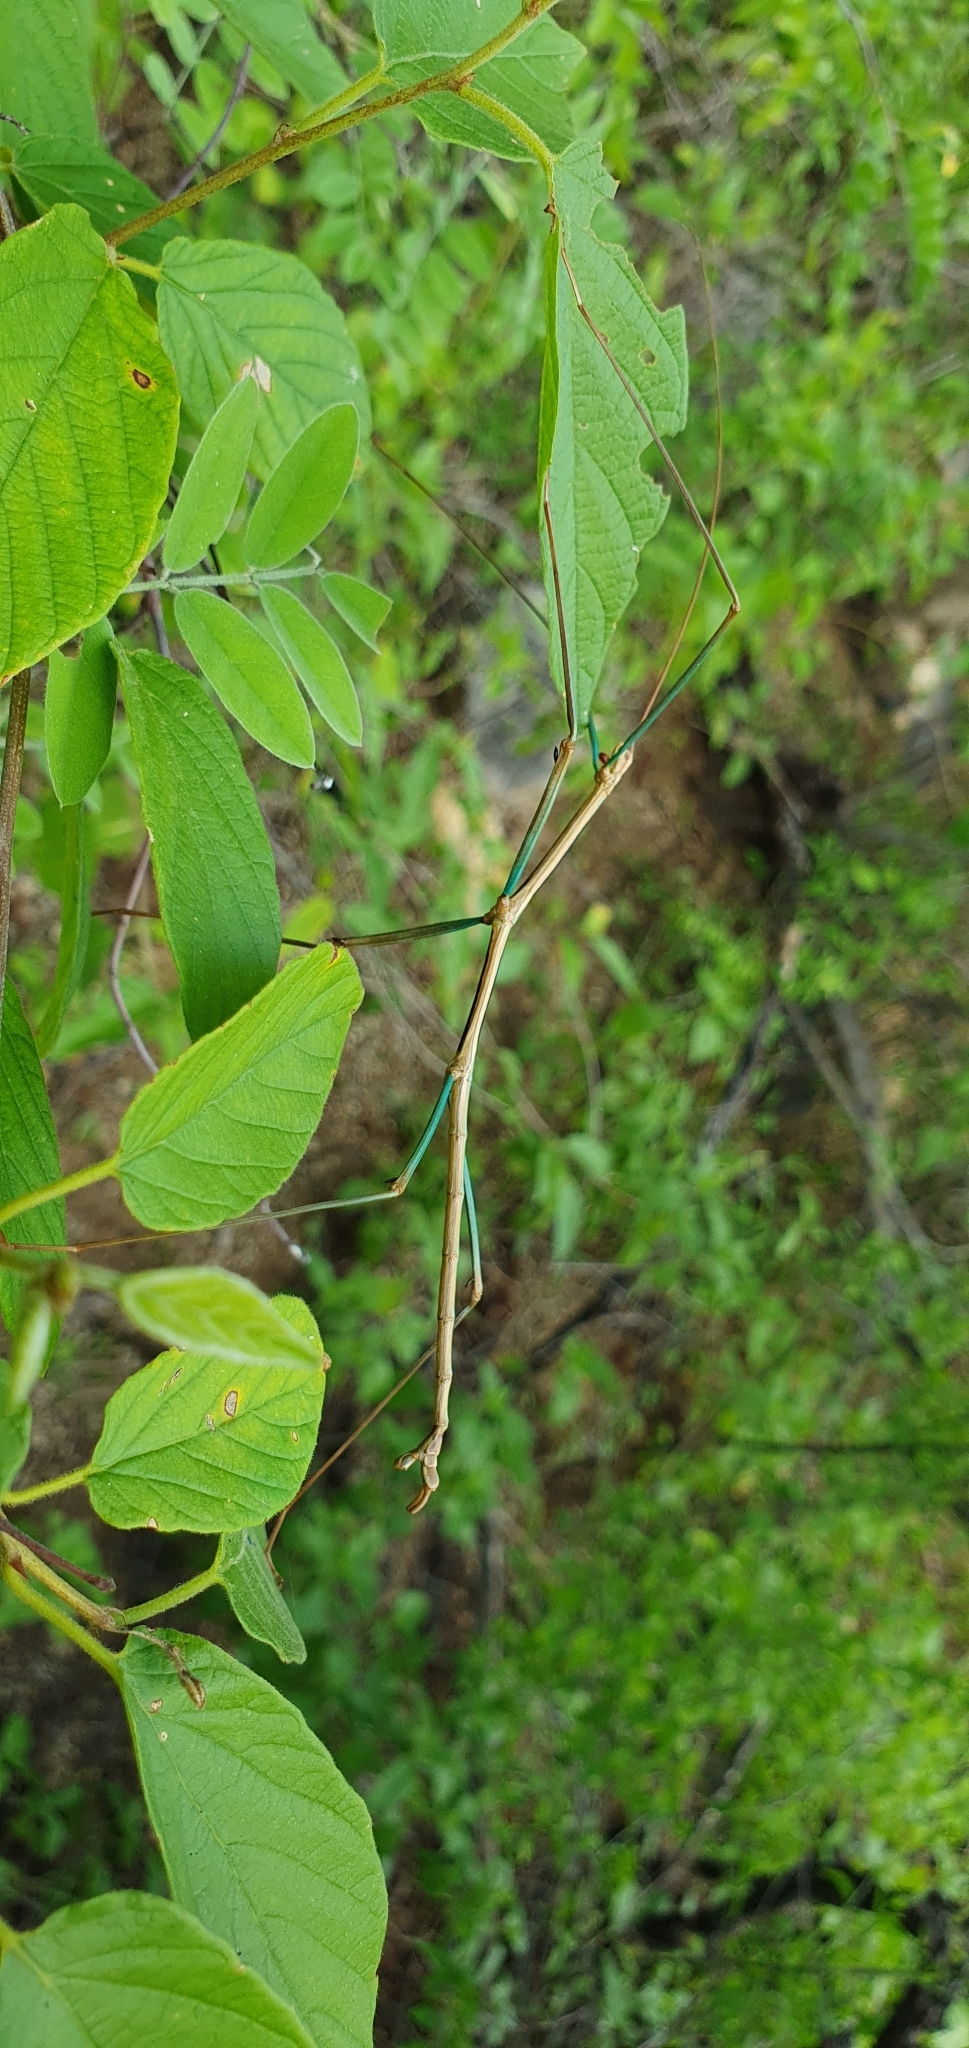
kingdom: Animalia
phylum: Arthropoda
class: Insecta
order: Phasmida
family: Diapheromeridae
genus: Diapheromera
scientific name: Diapheromera kevani
